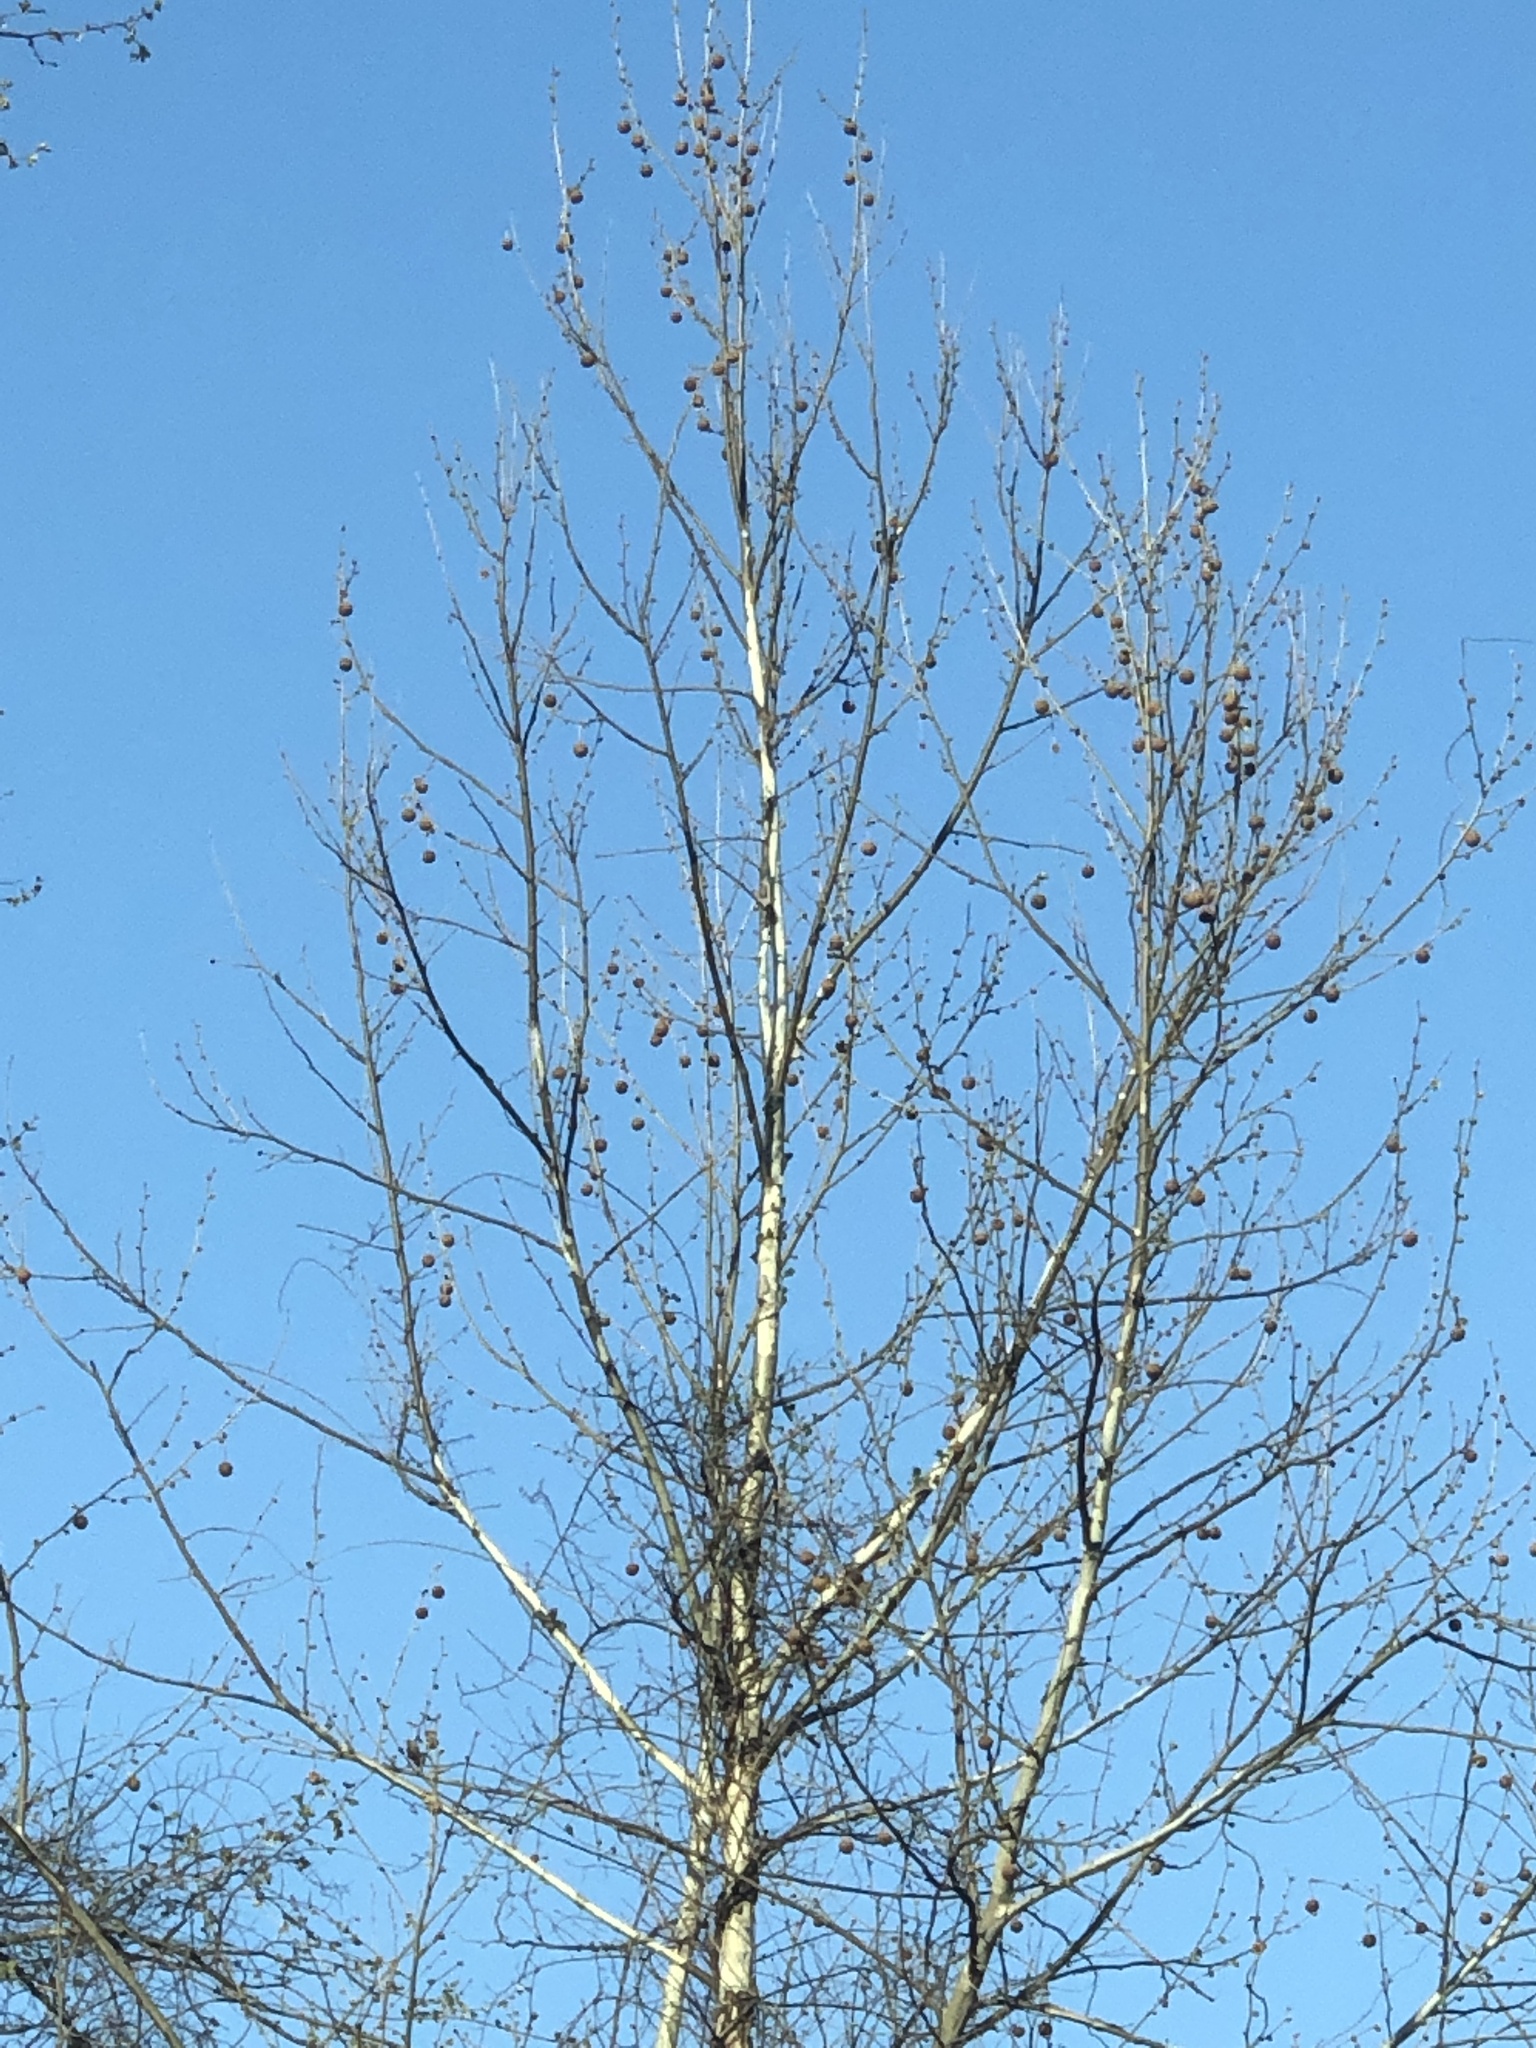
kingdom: Plantae
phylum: Tracheophyta
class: Magnoliopsida
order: Proteales
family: Platanaceae
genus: Platanus
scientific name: Platanus occidentalis
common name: American sycamore
